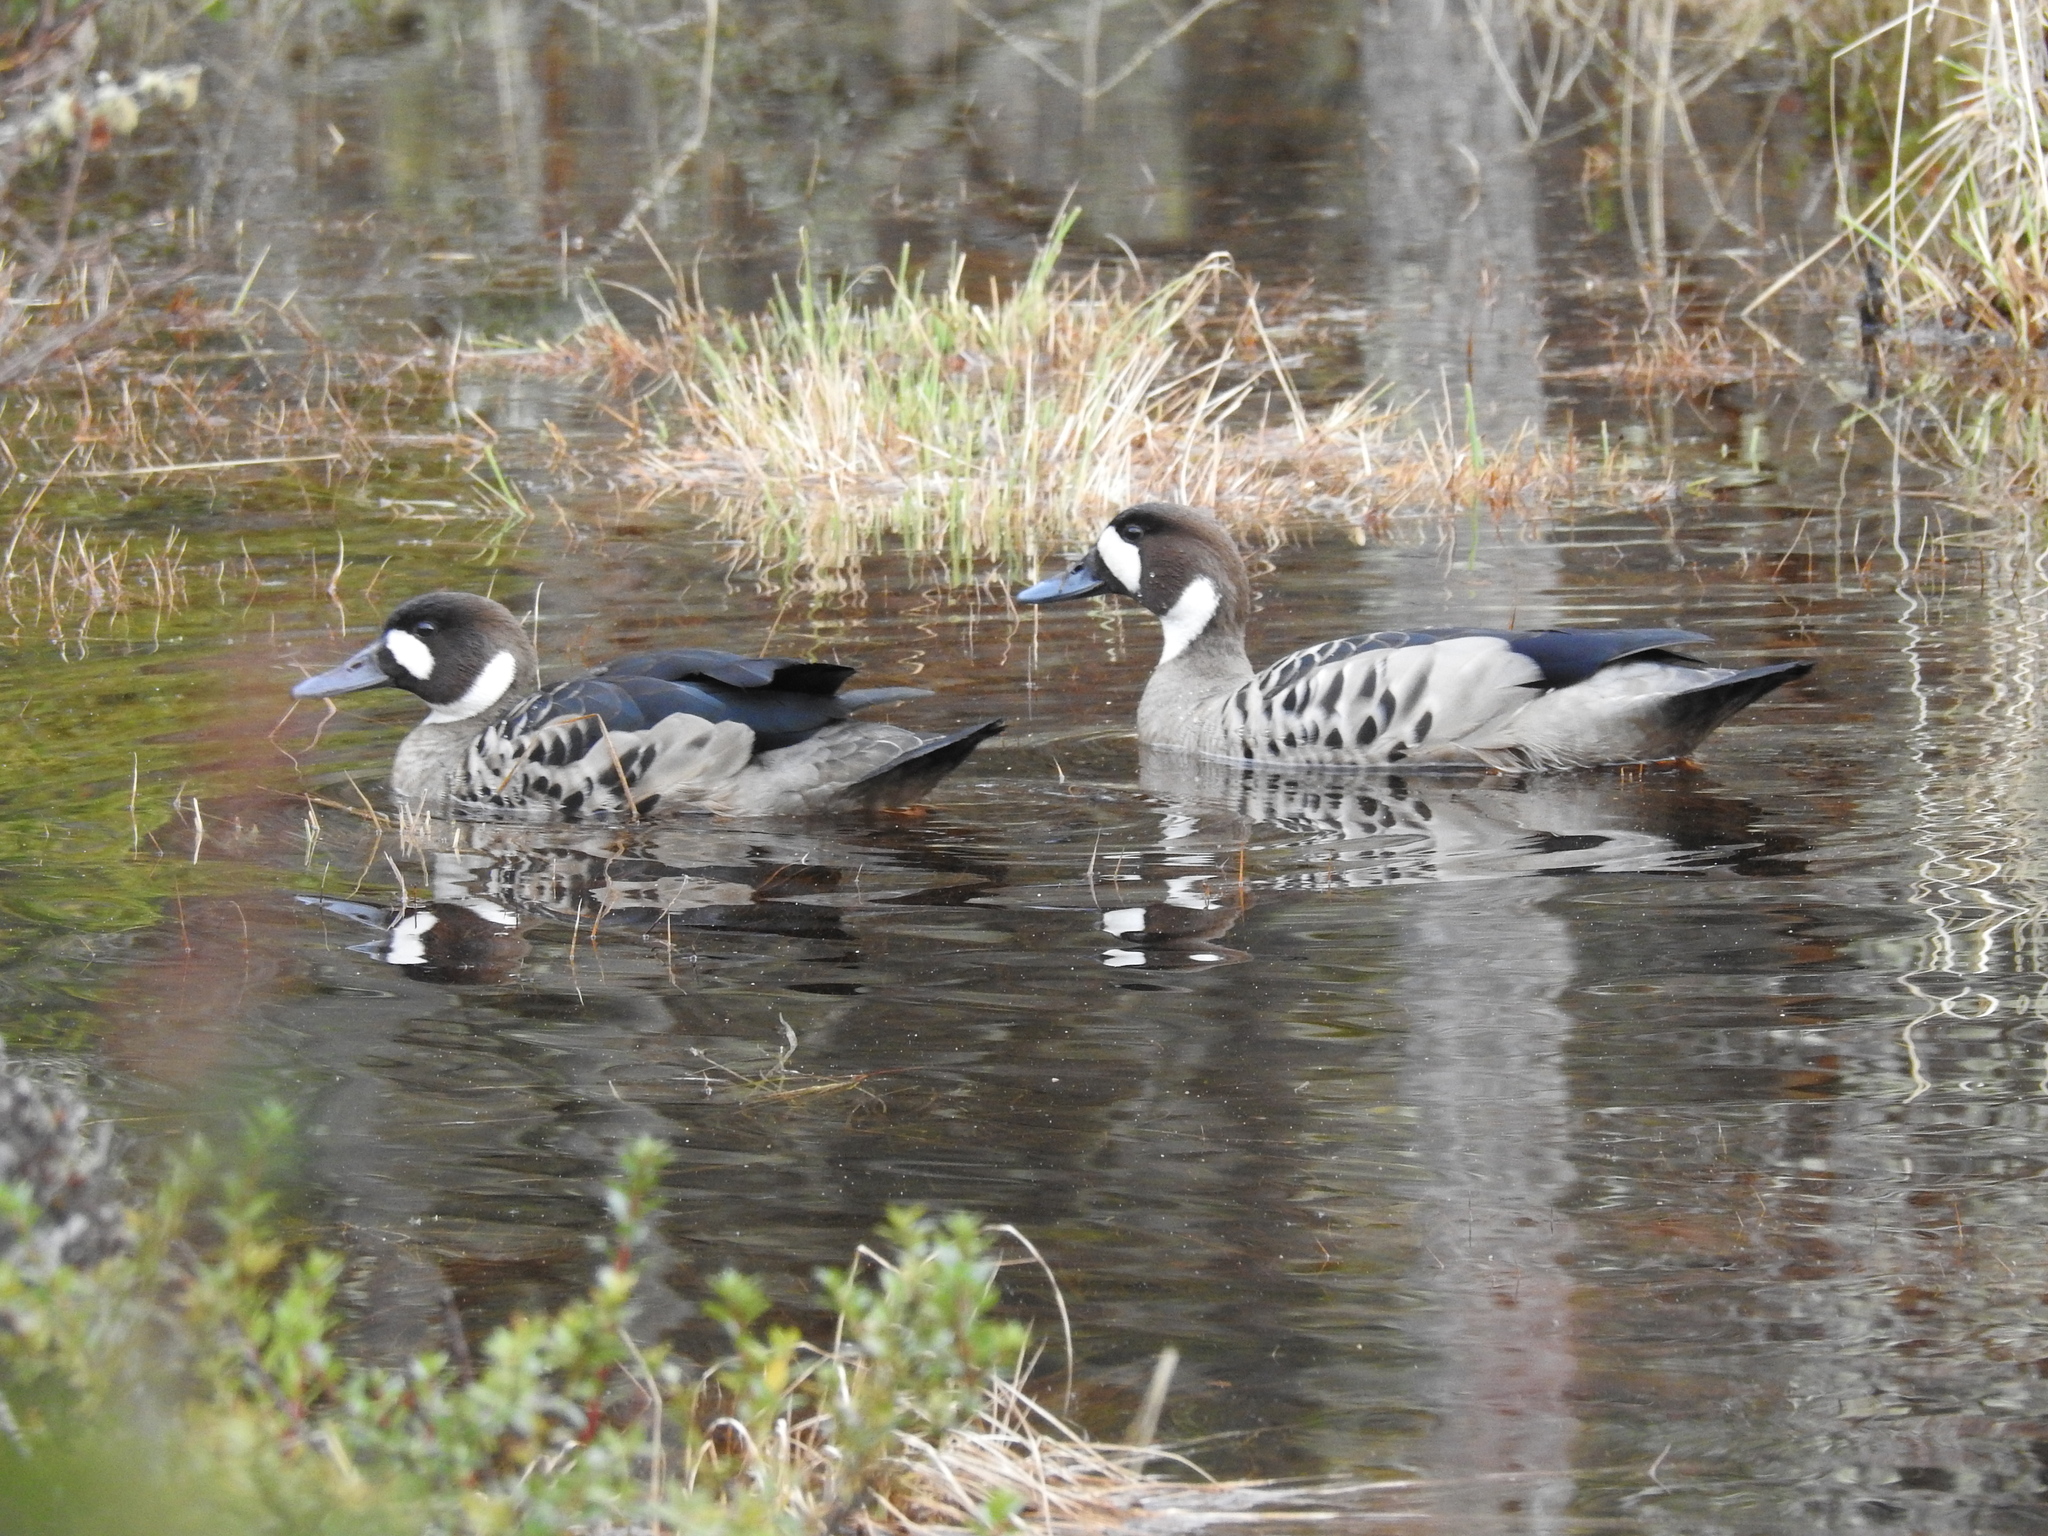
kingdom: Animalia
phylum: Chordata
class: Aves
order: Anseriformes
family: Anatidae
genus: Speculanas
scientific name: Speculanas specularis
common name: Bronze-winged duck
